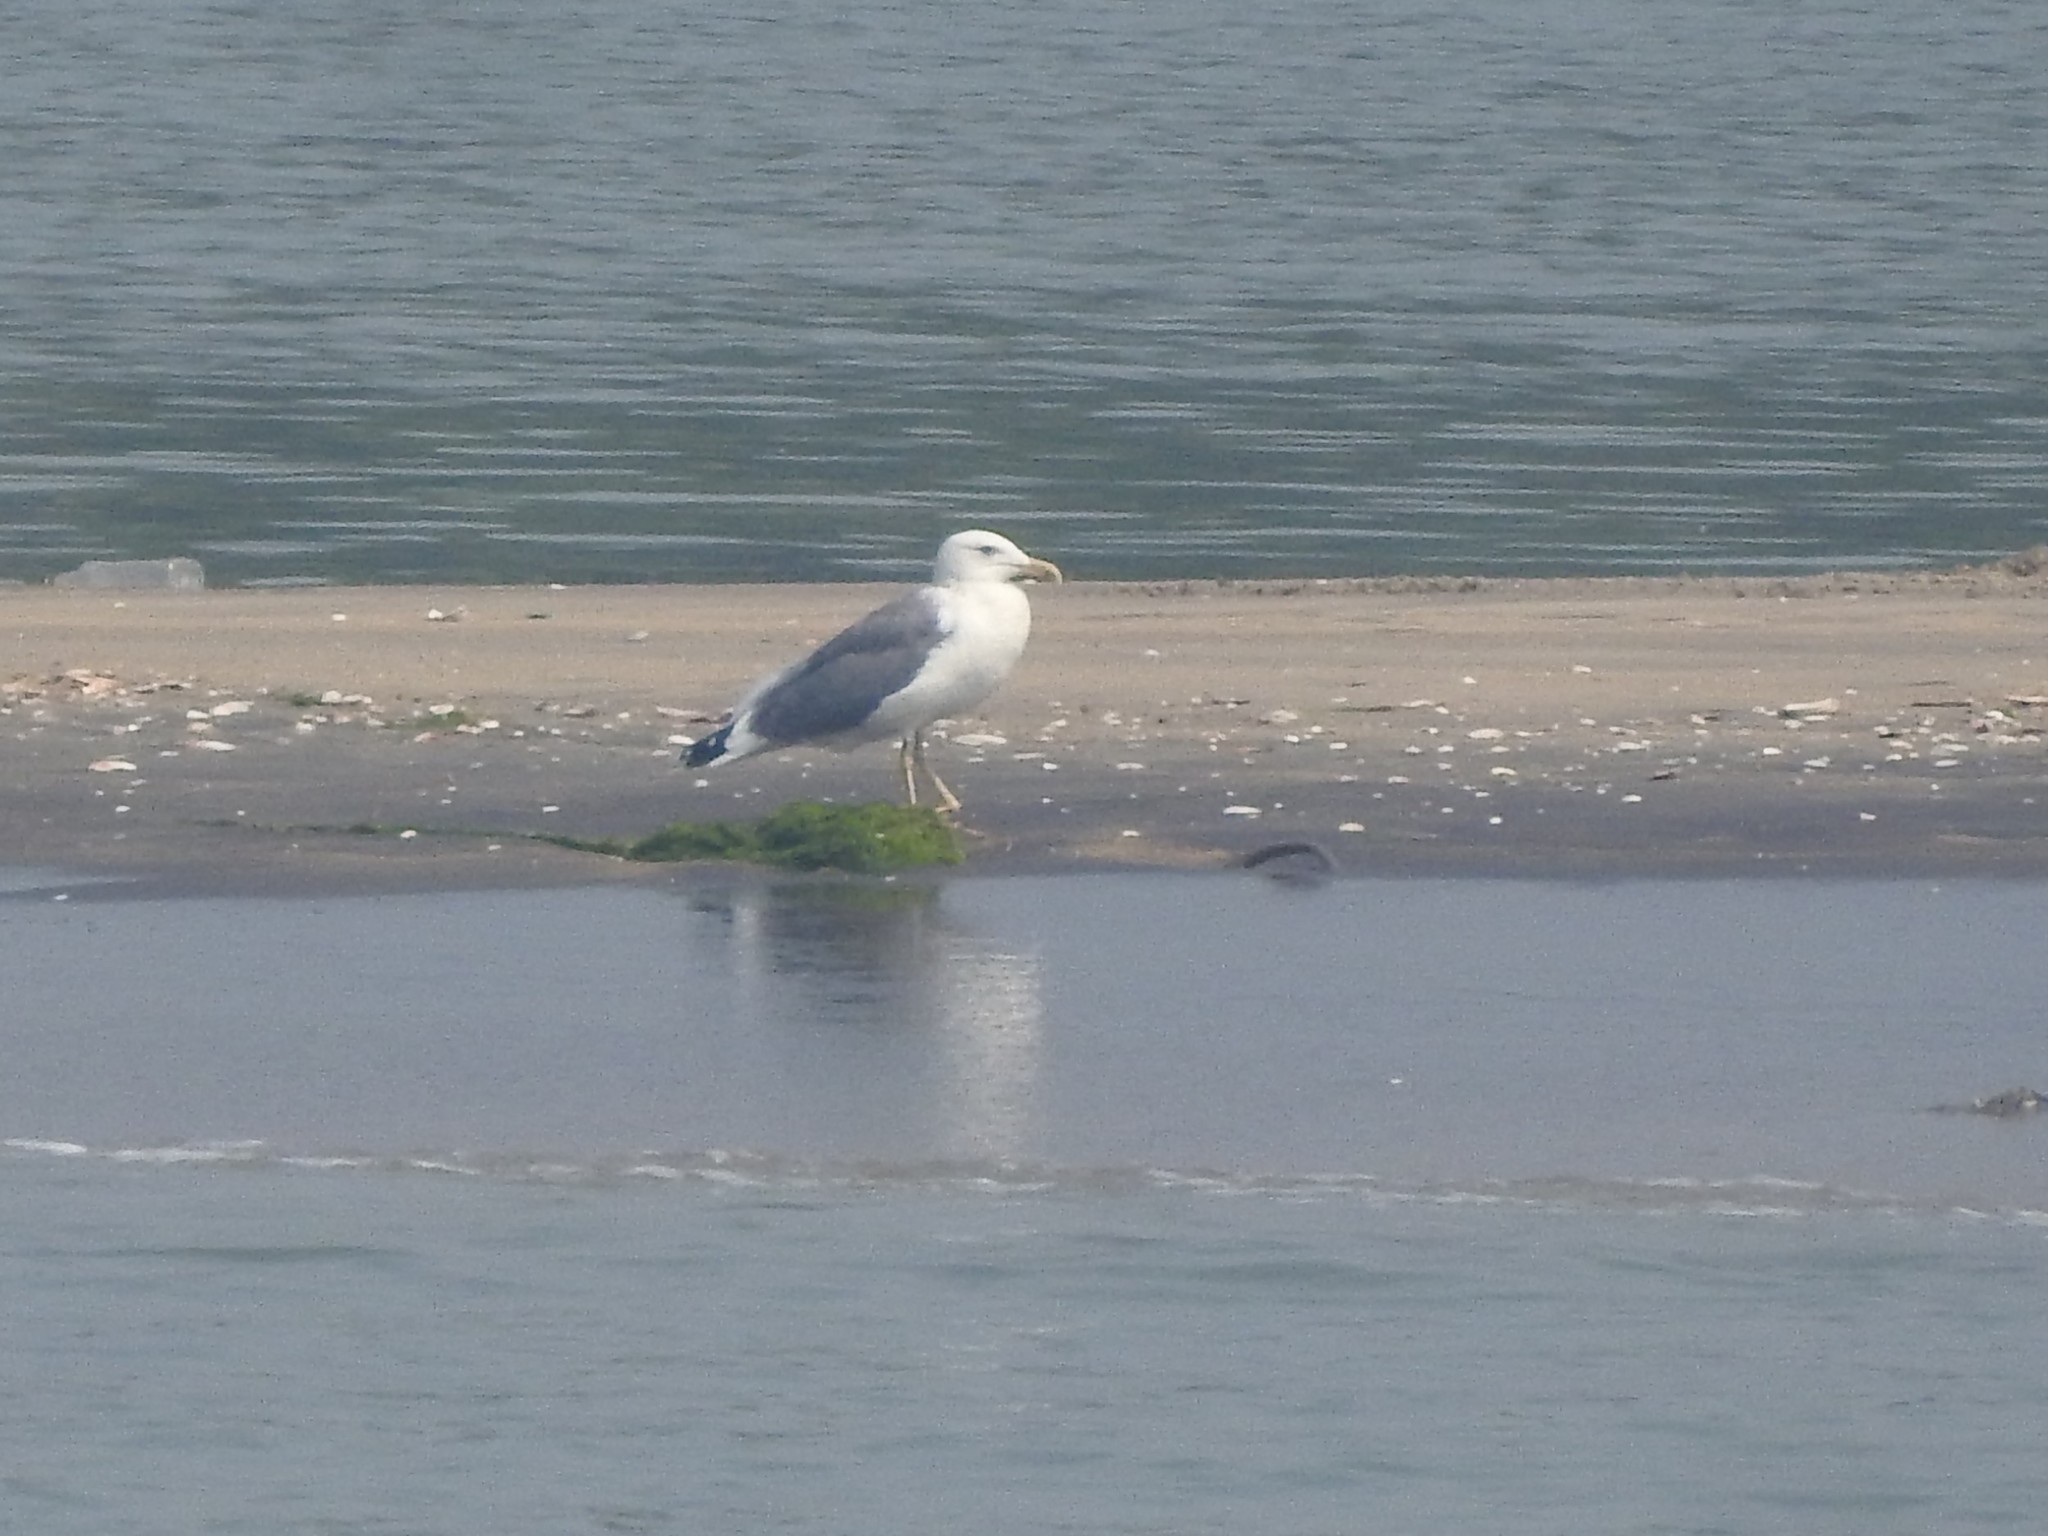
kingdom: Animalia
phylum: Chordata
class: Aves
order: Charadriiformes
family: Laridae
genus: Larus
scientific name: Larus fuscus
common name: Lesser black-backed gull
